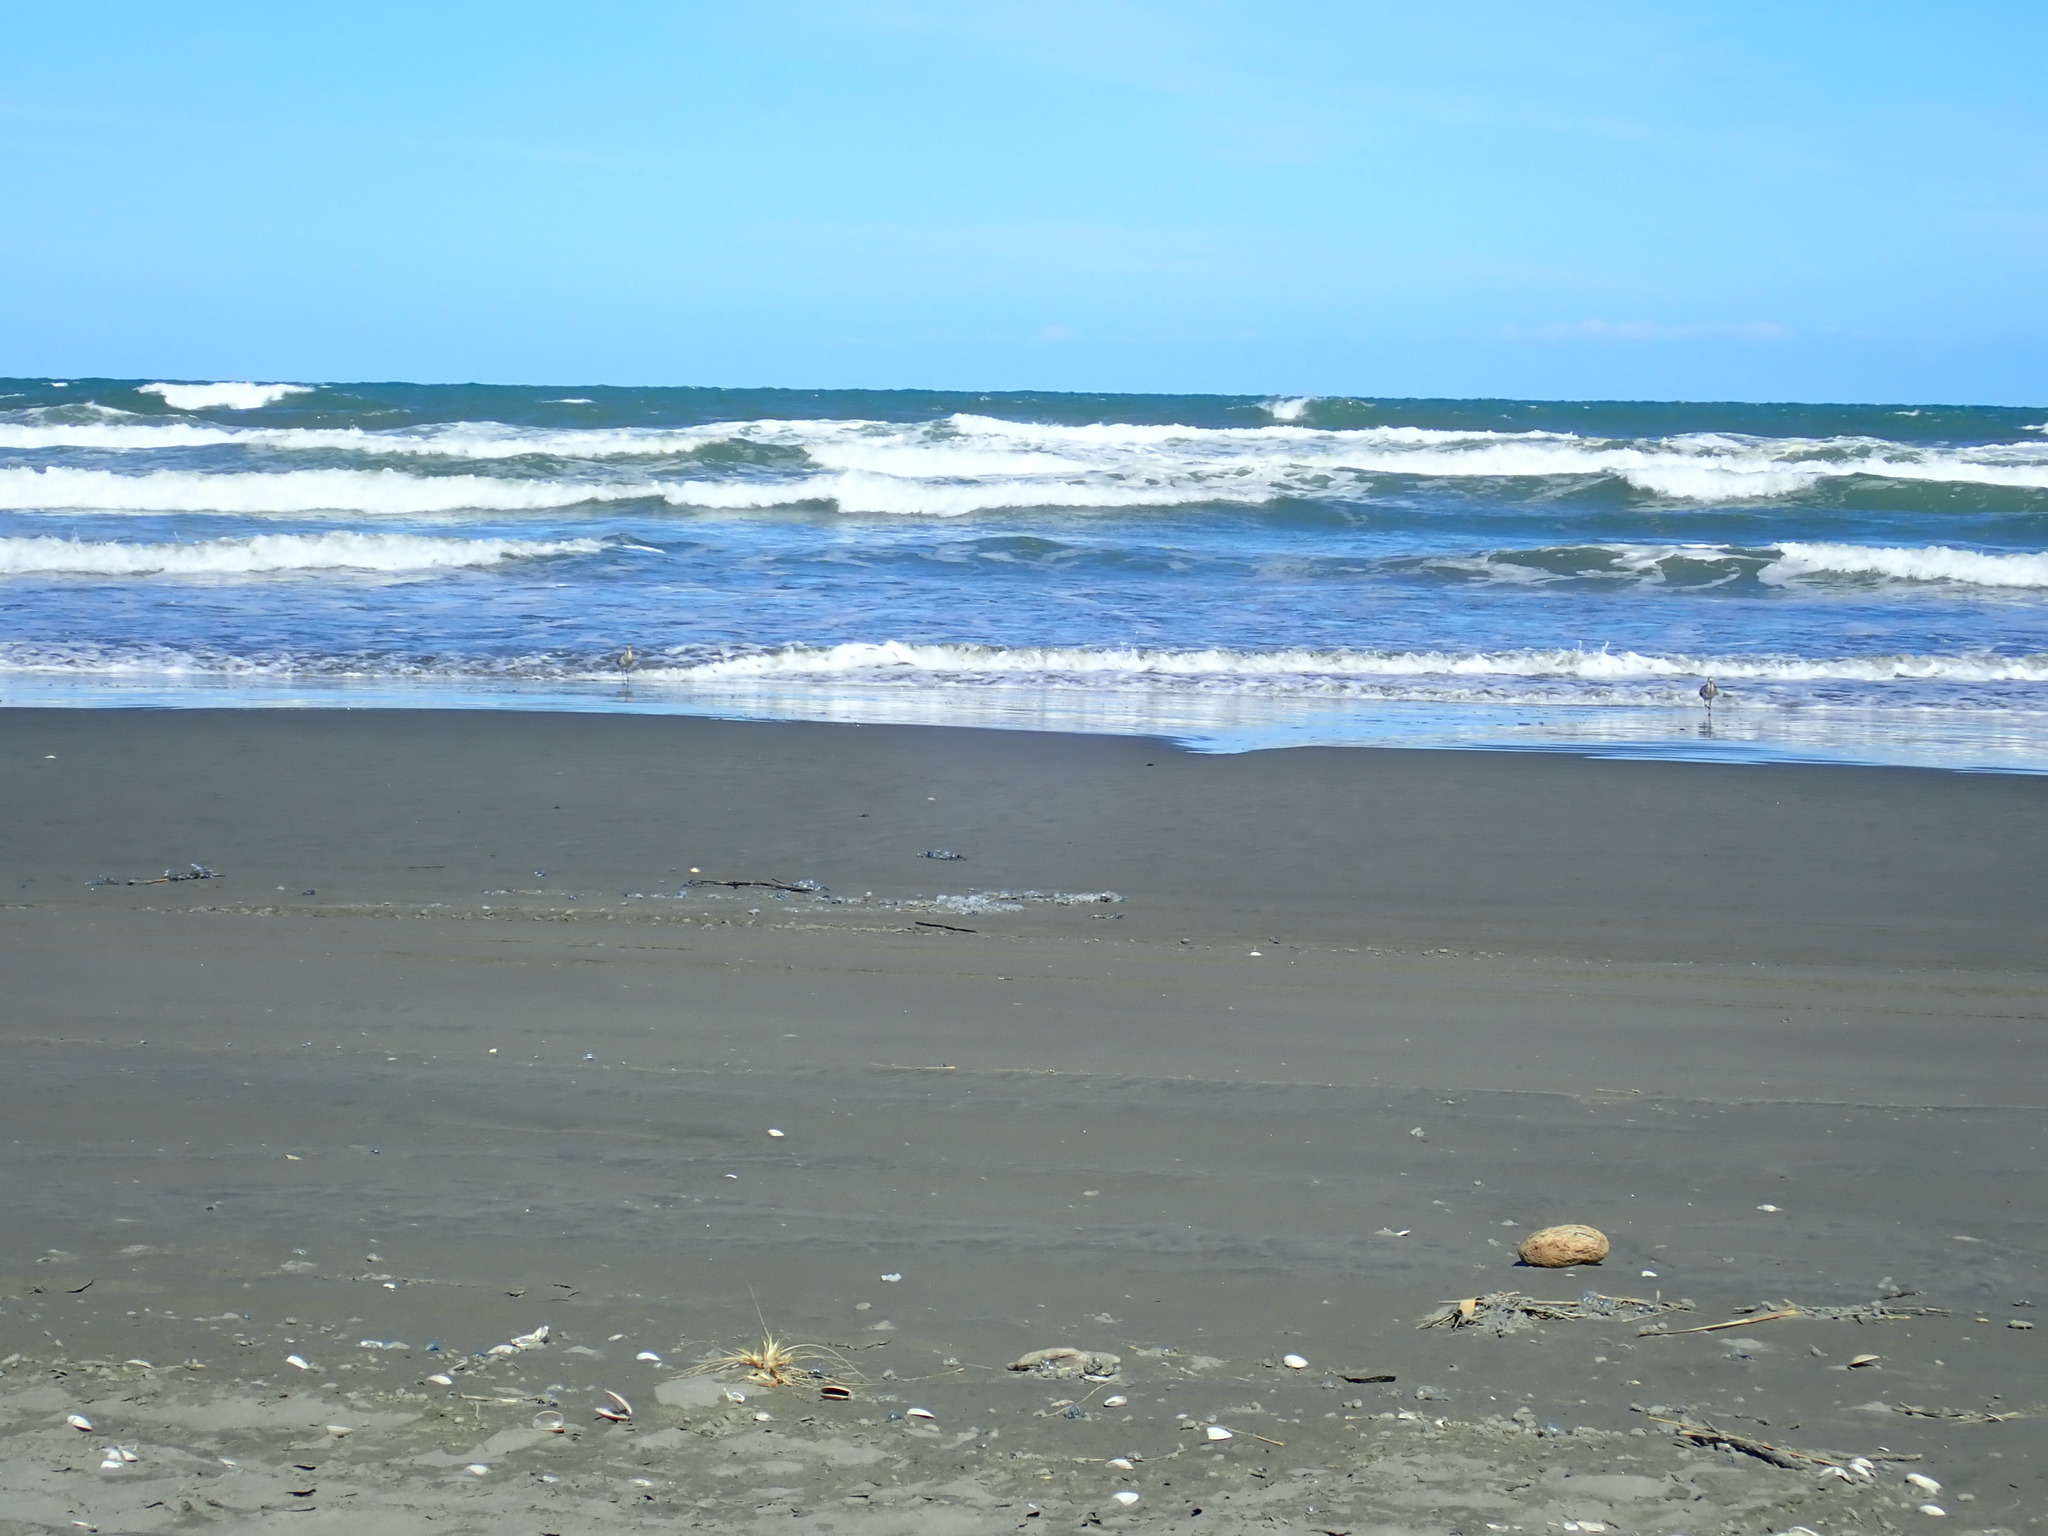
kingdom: Animalia
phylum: Chordata
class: Aves
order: Charadriiformes
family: Scolopacidae
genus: Limosa
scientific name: Limosa lapponica
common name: Bar-tailed godwit
